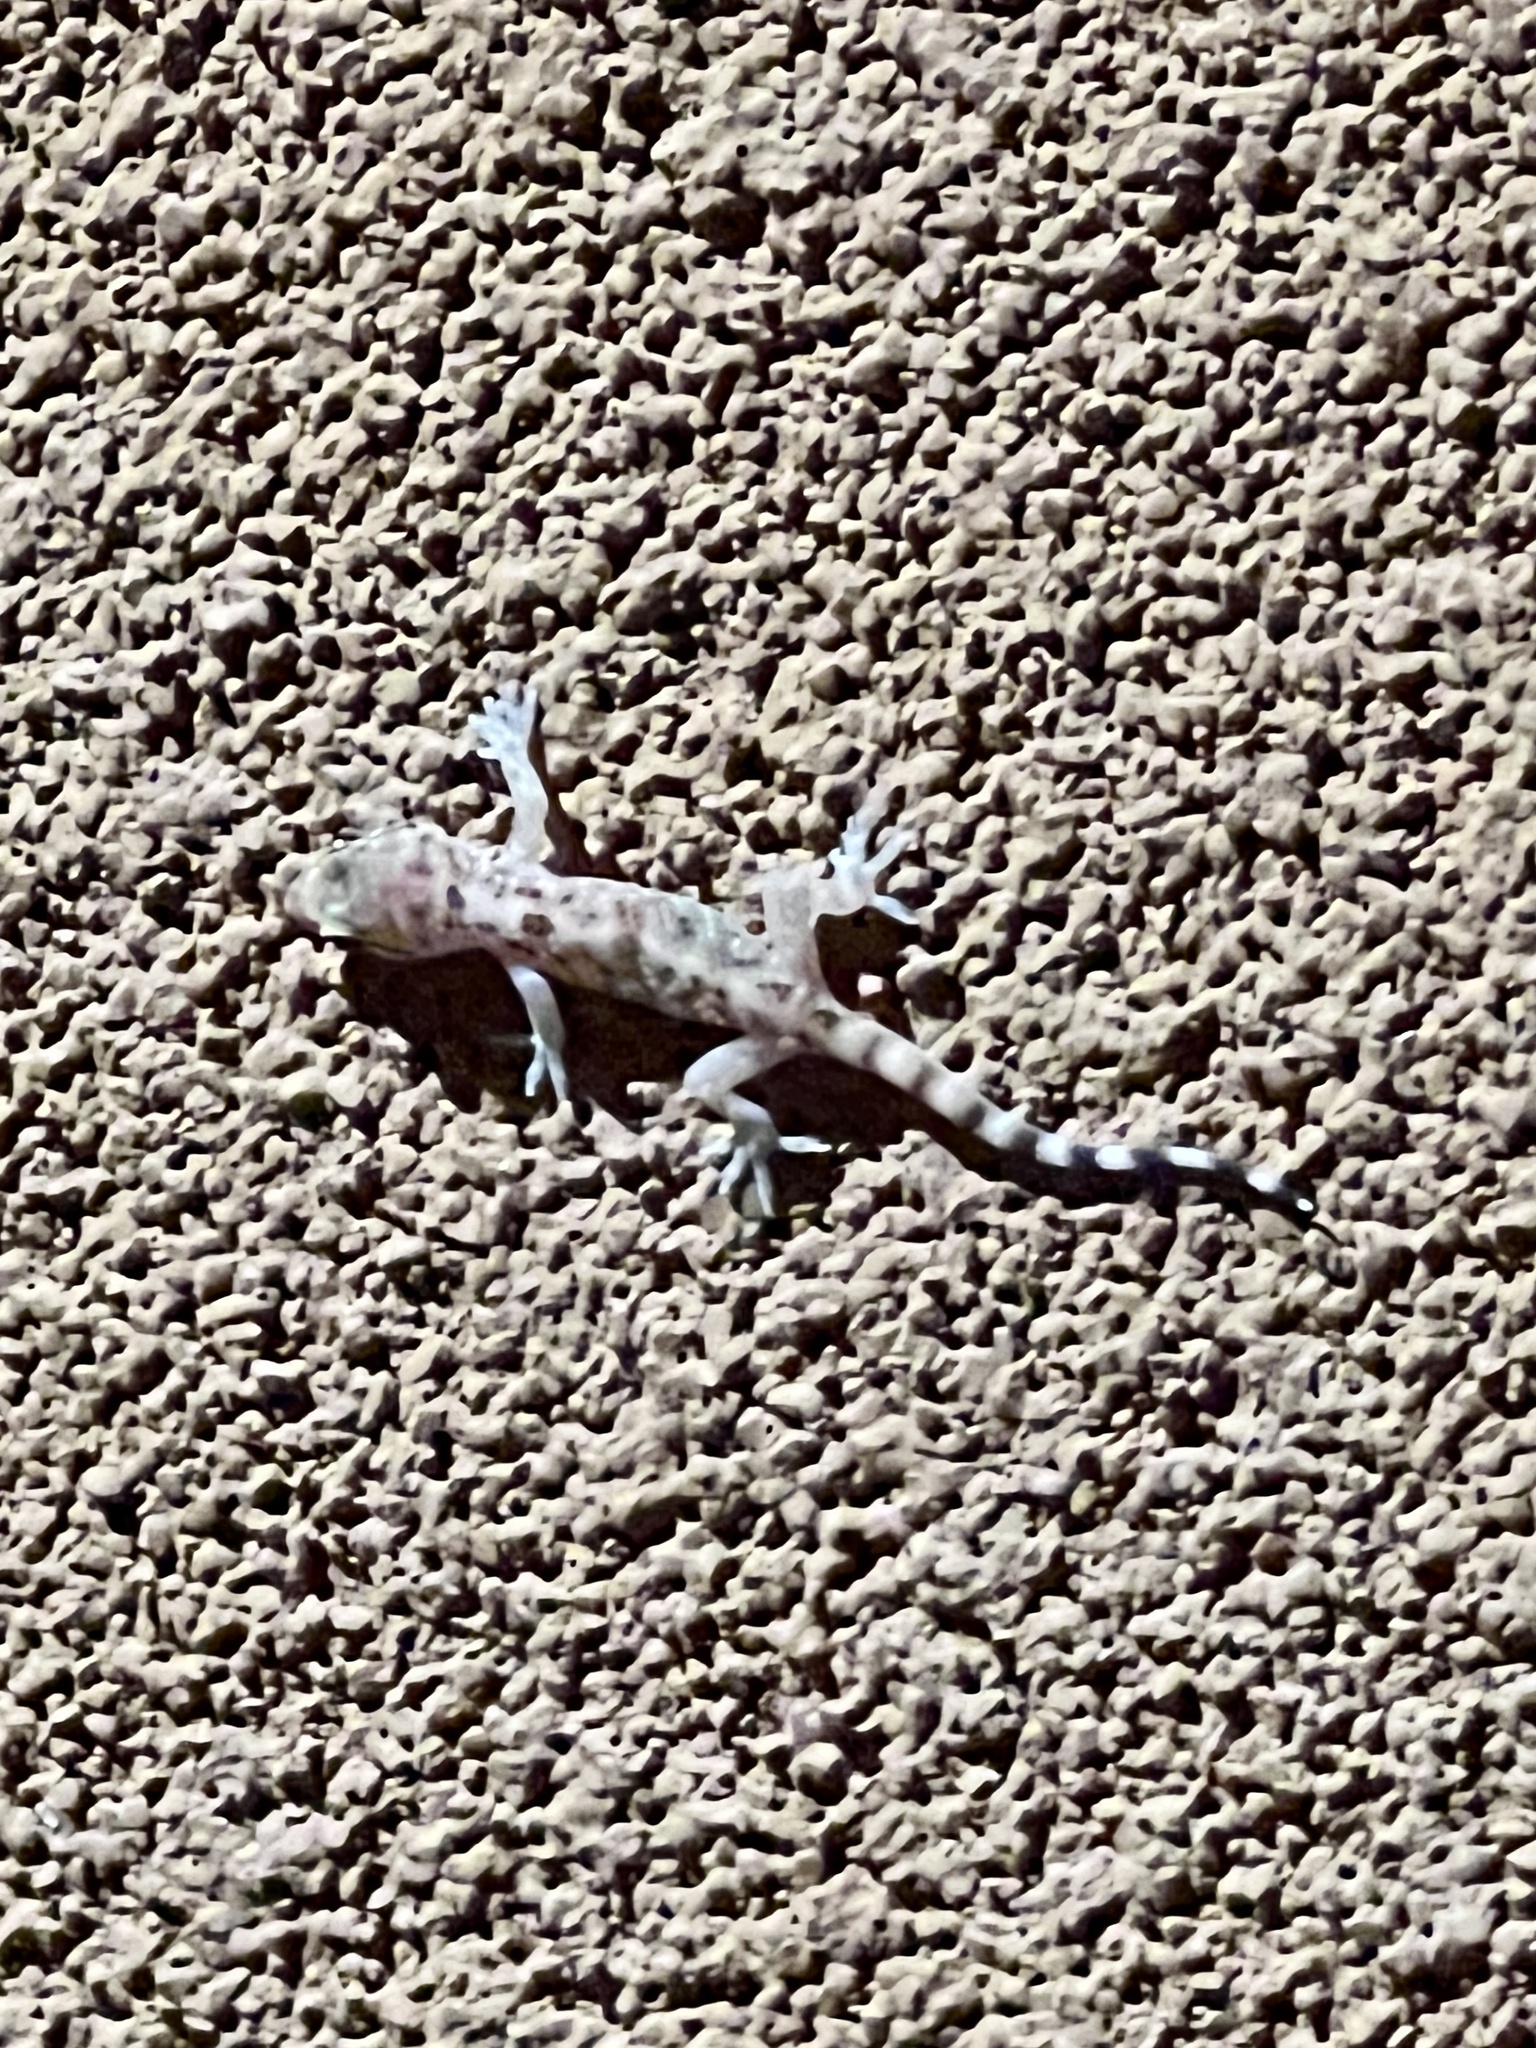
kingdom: Animalia
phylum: Chordata
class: Squamata
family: Gekkonidae
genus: Hemidactylus
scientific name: Hemidactylus turcicus
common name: Turkish gecko
